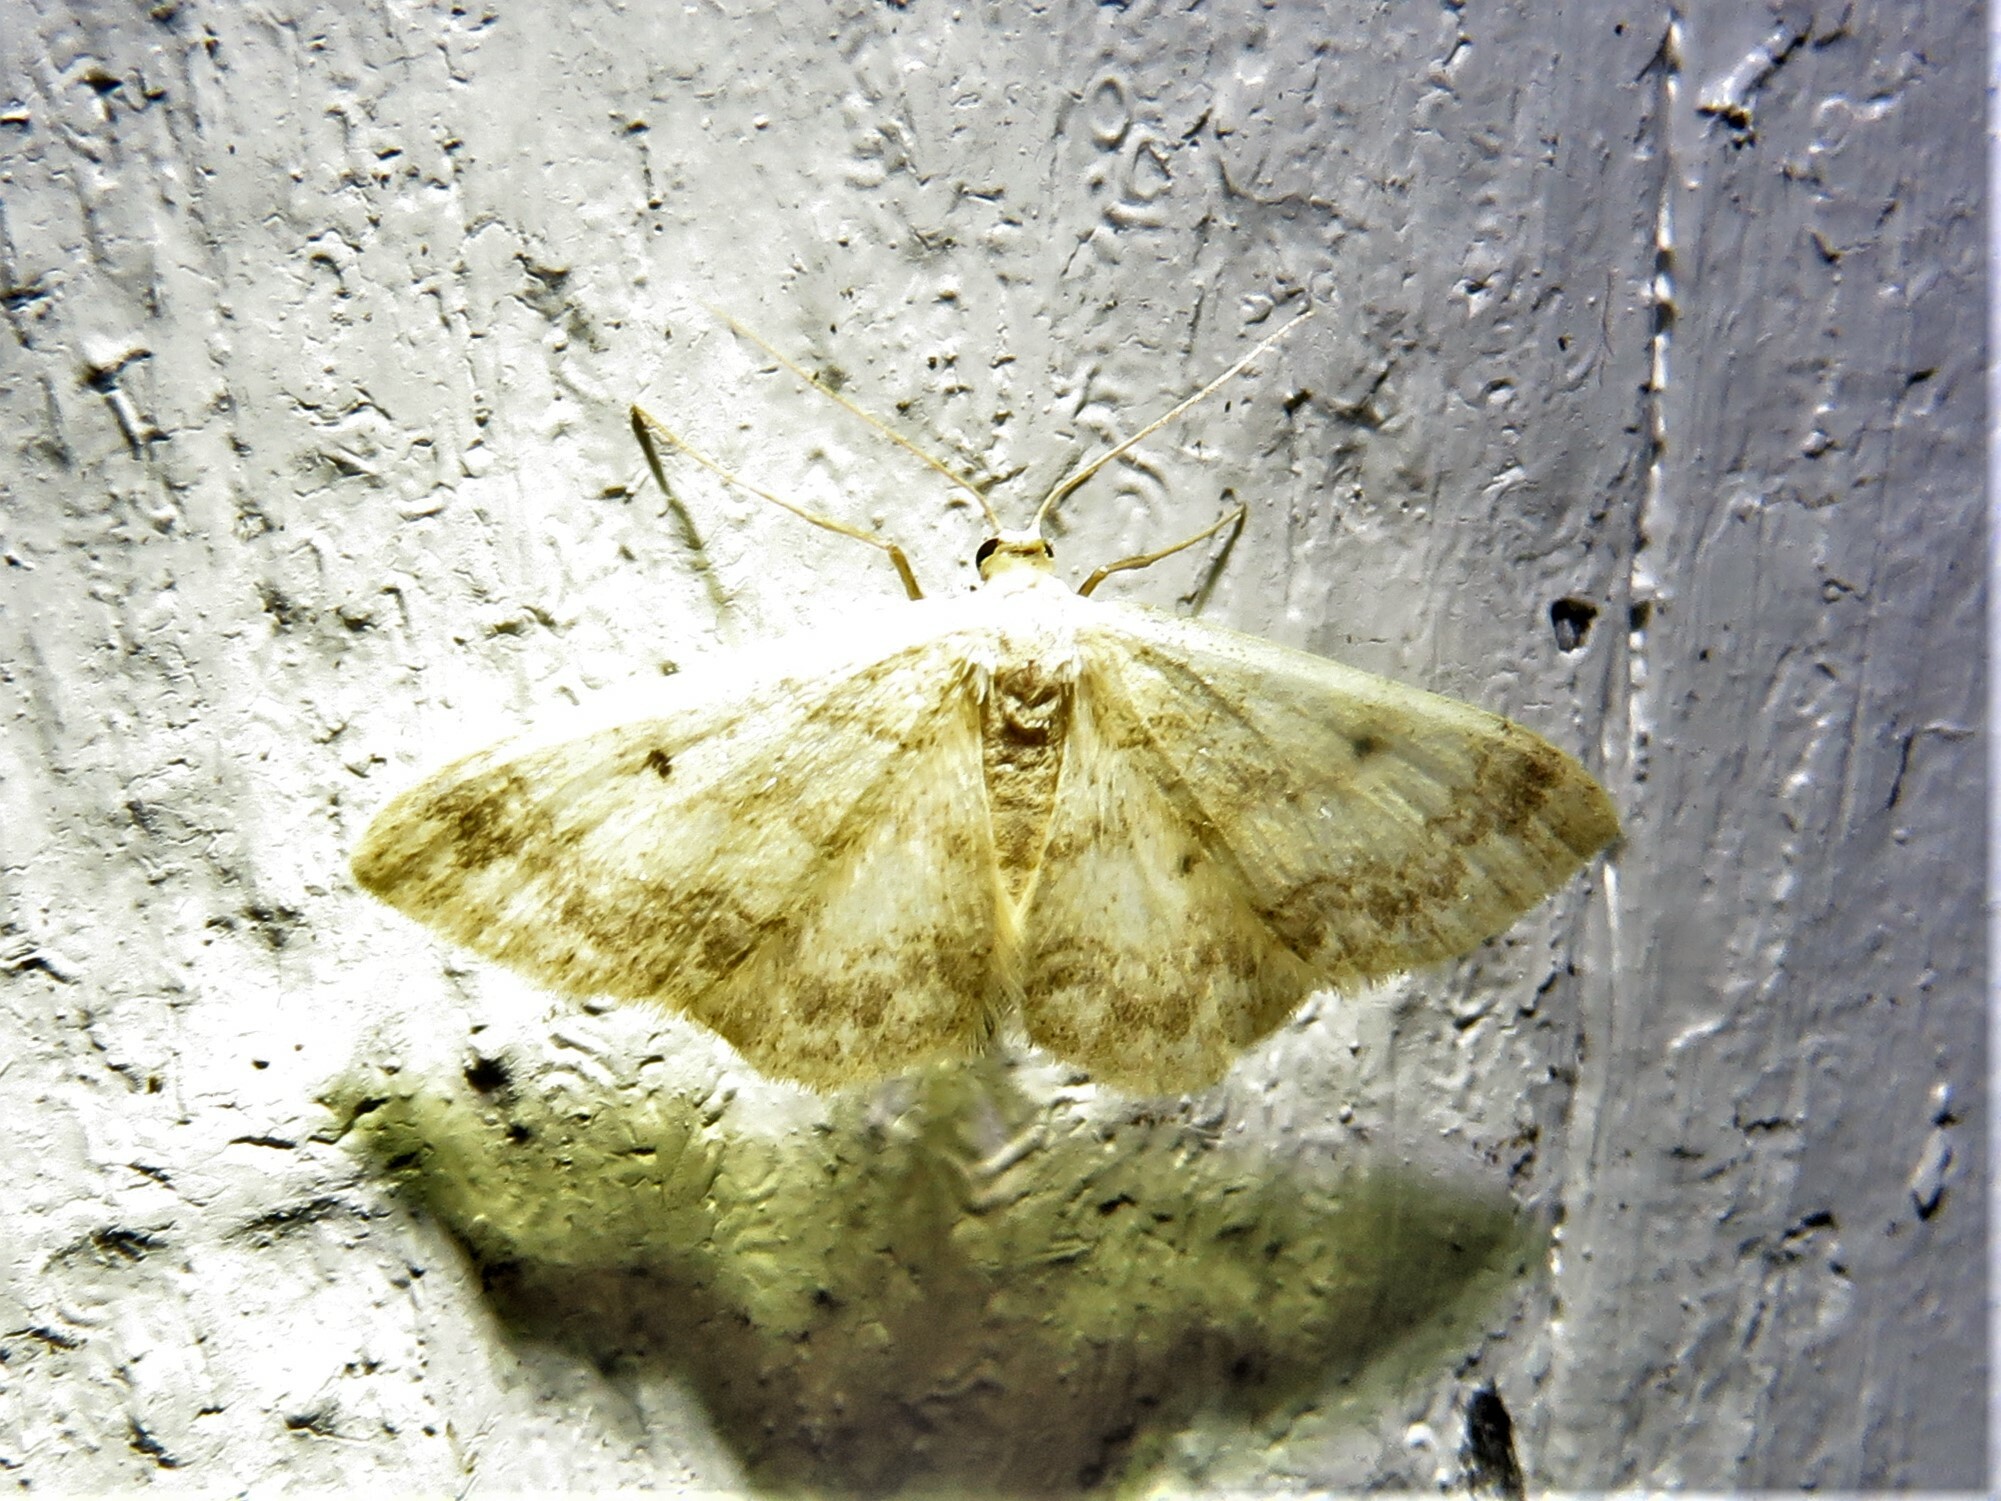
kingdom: Animalia
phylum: Arthropoda
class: Insecta
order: Lepidoptera
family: Geometridae
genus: Idaea
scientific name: Idaea biselata
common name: Small fan-footed wave
